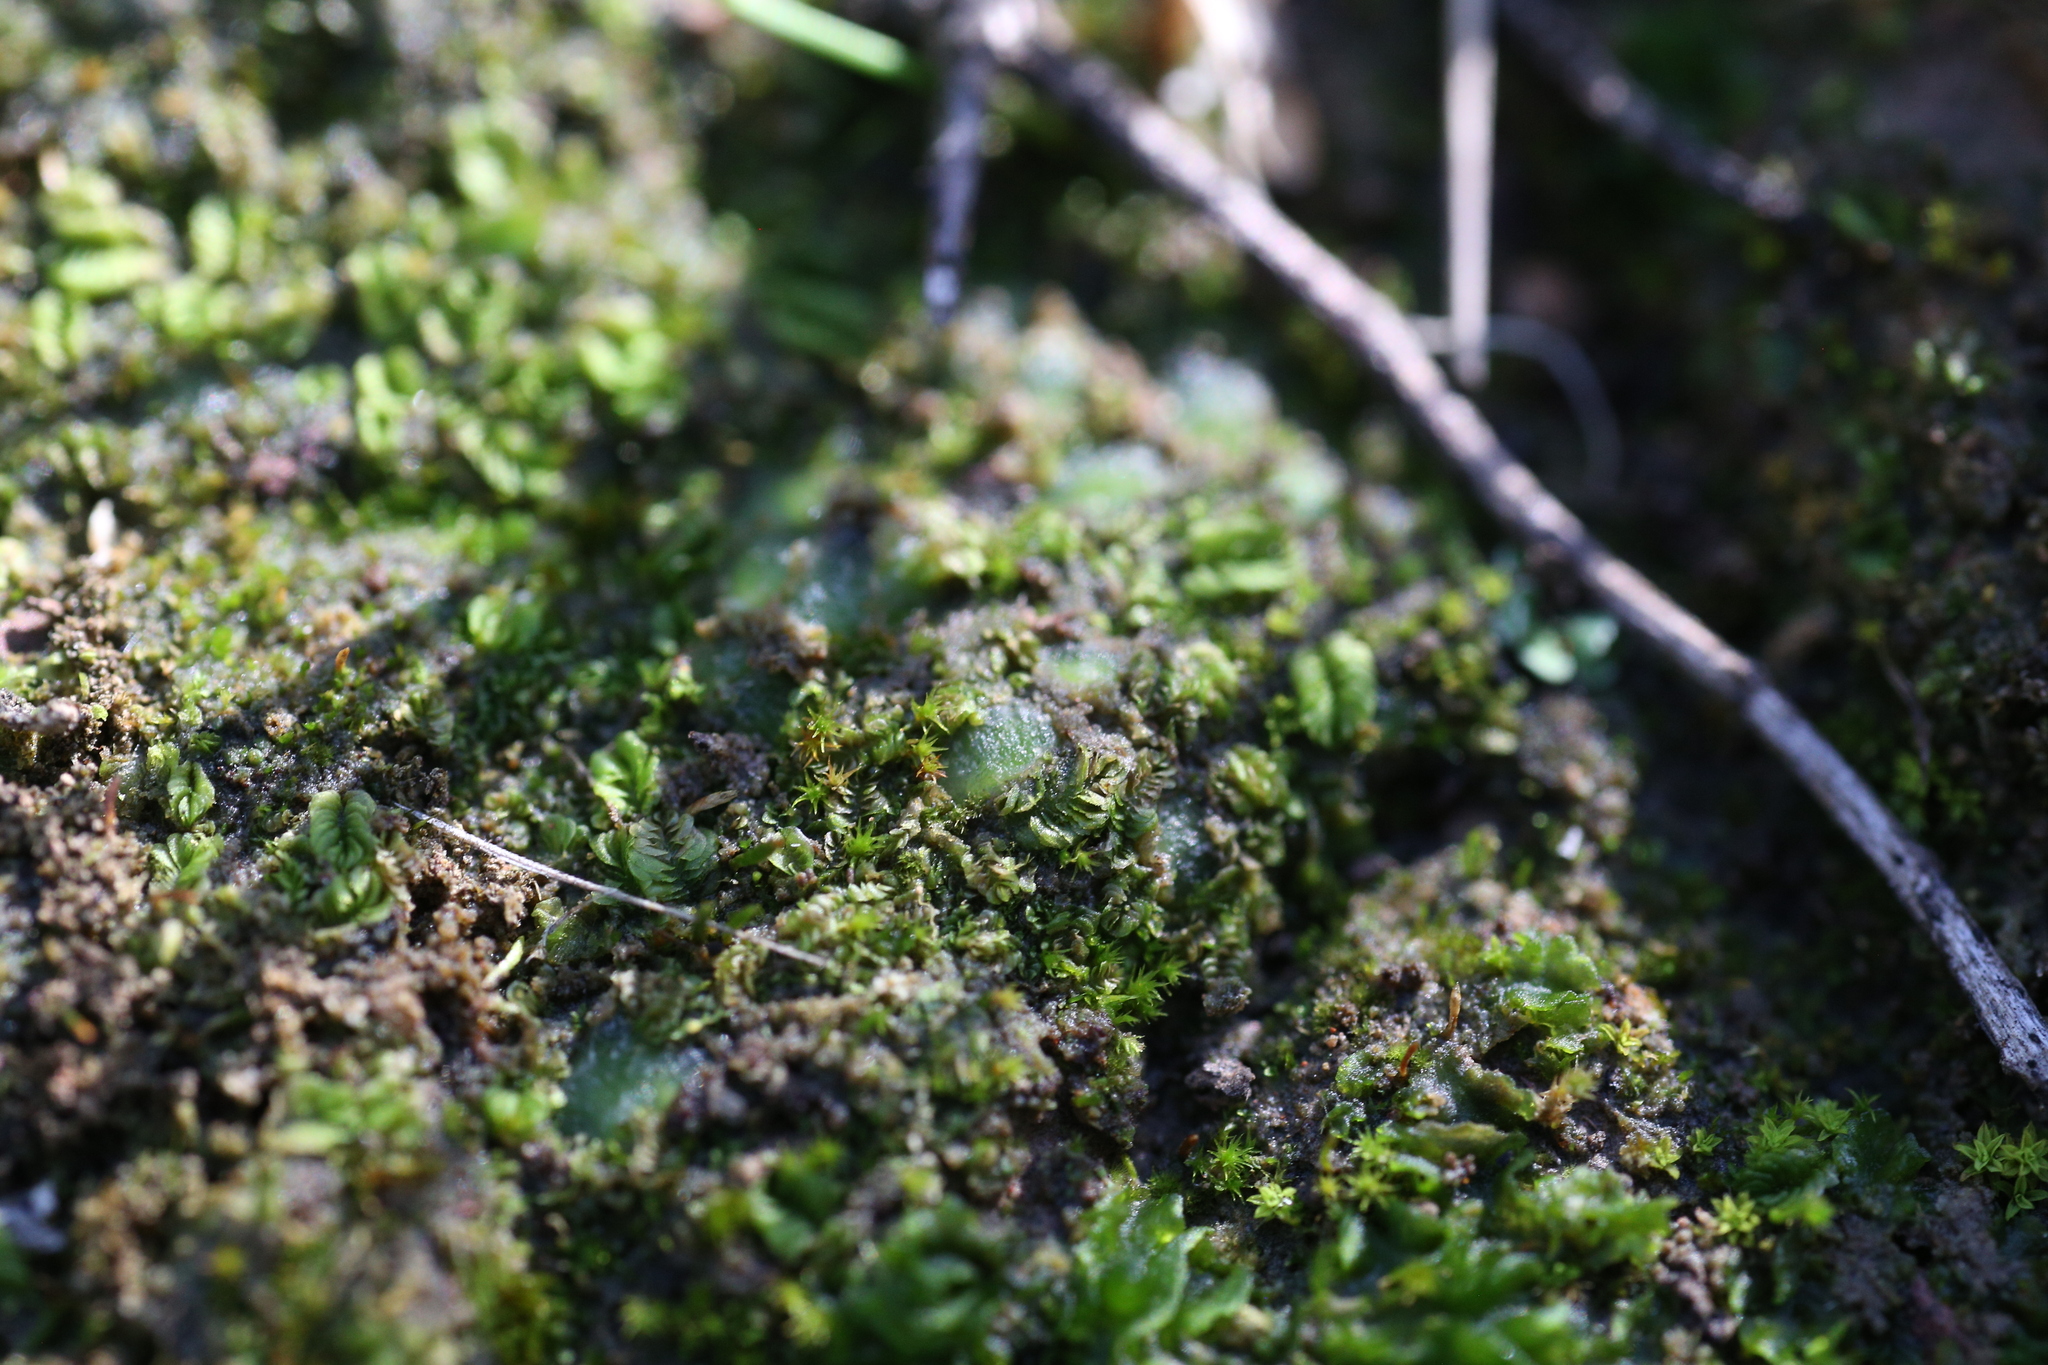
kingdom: Plantae
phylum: Marchantiophyta
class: Jungermanniopsida
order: Jungermanniales
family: Acrobolbaceae
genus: Enigmella
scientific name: Enigmella thallina
